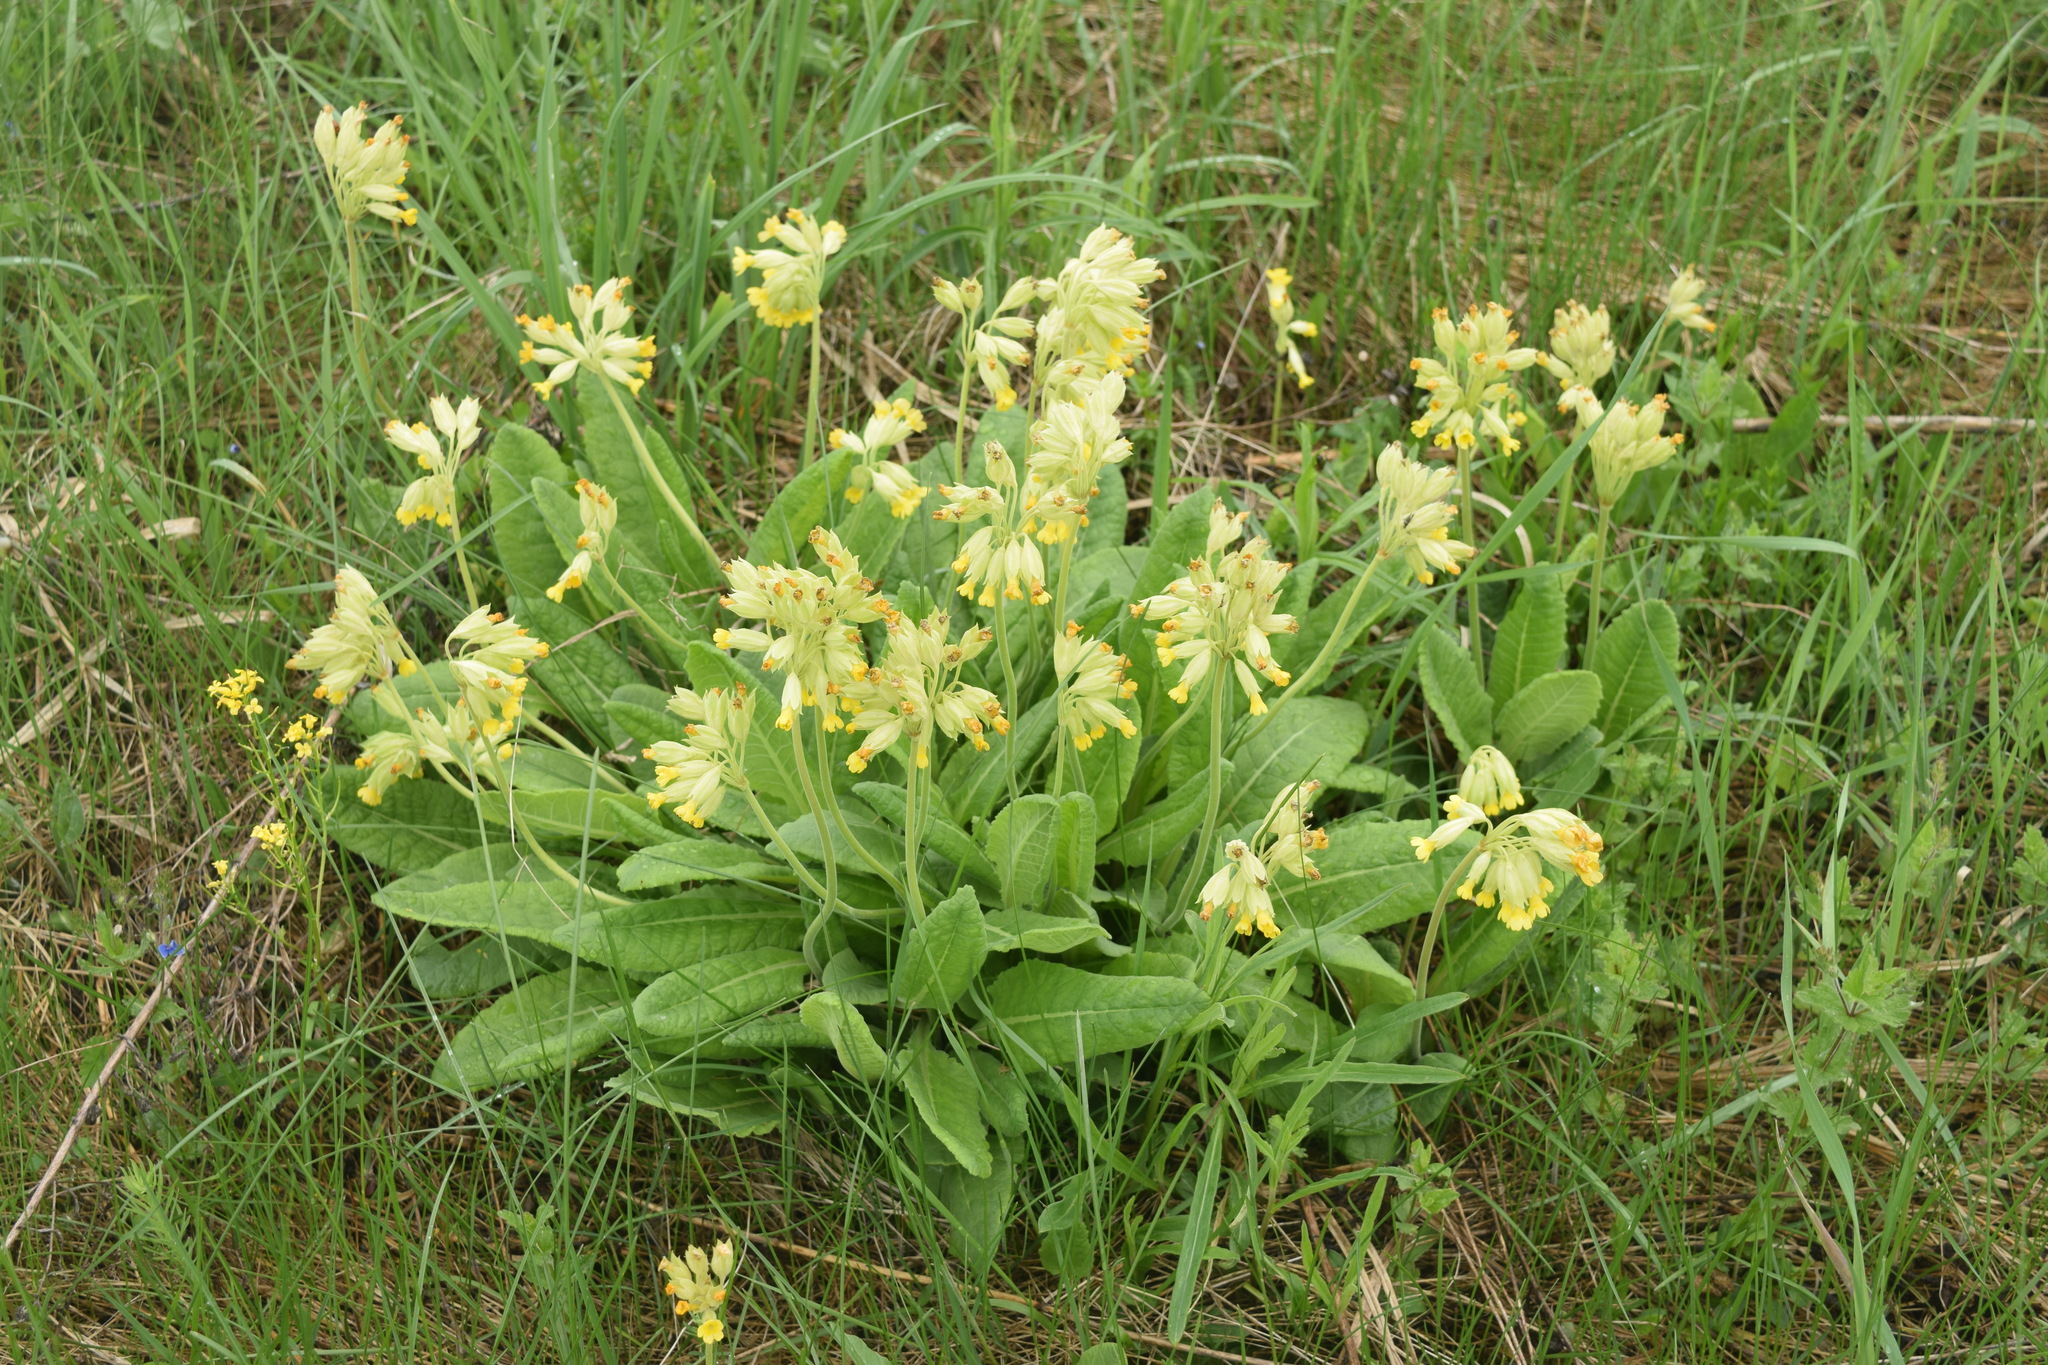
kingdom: Plantae
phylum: Tracheophyta
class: Magnoliopsida
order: Ericales
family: Primulaceae
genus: Primula
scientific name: Primula veris
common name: Cowslip
